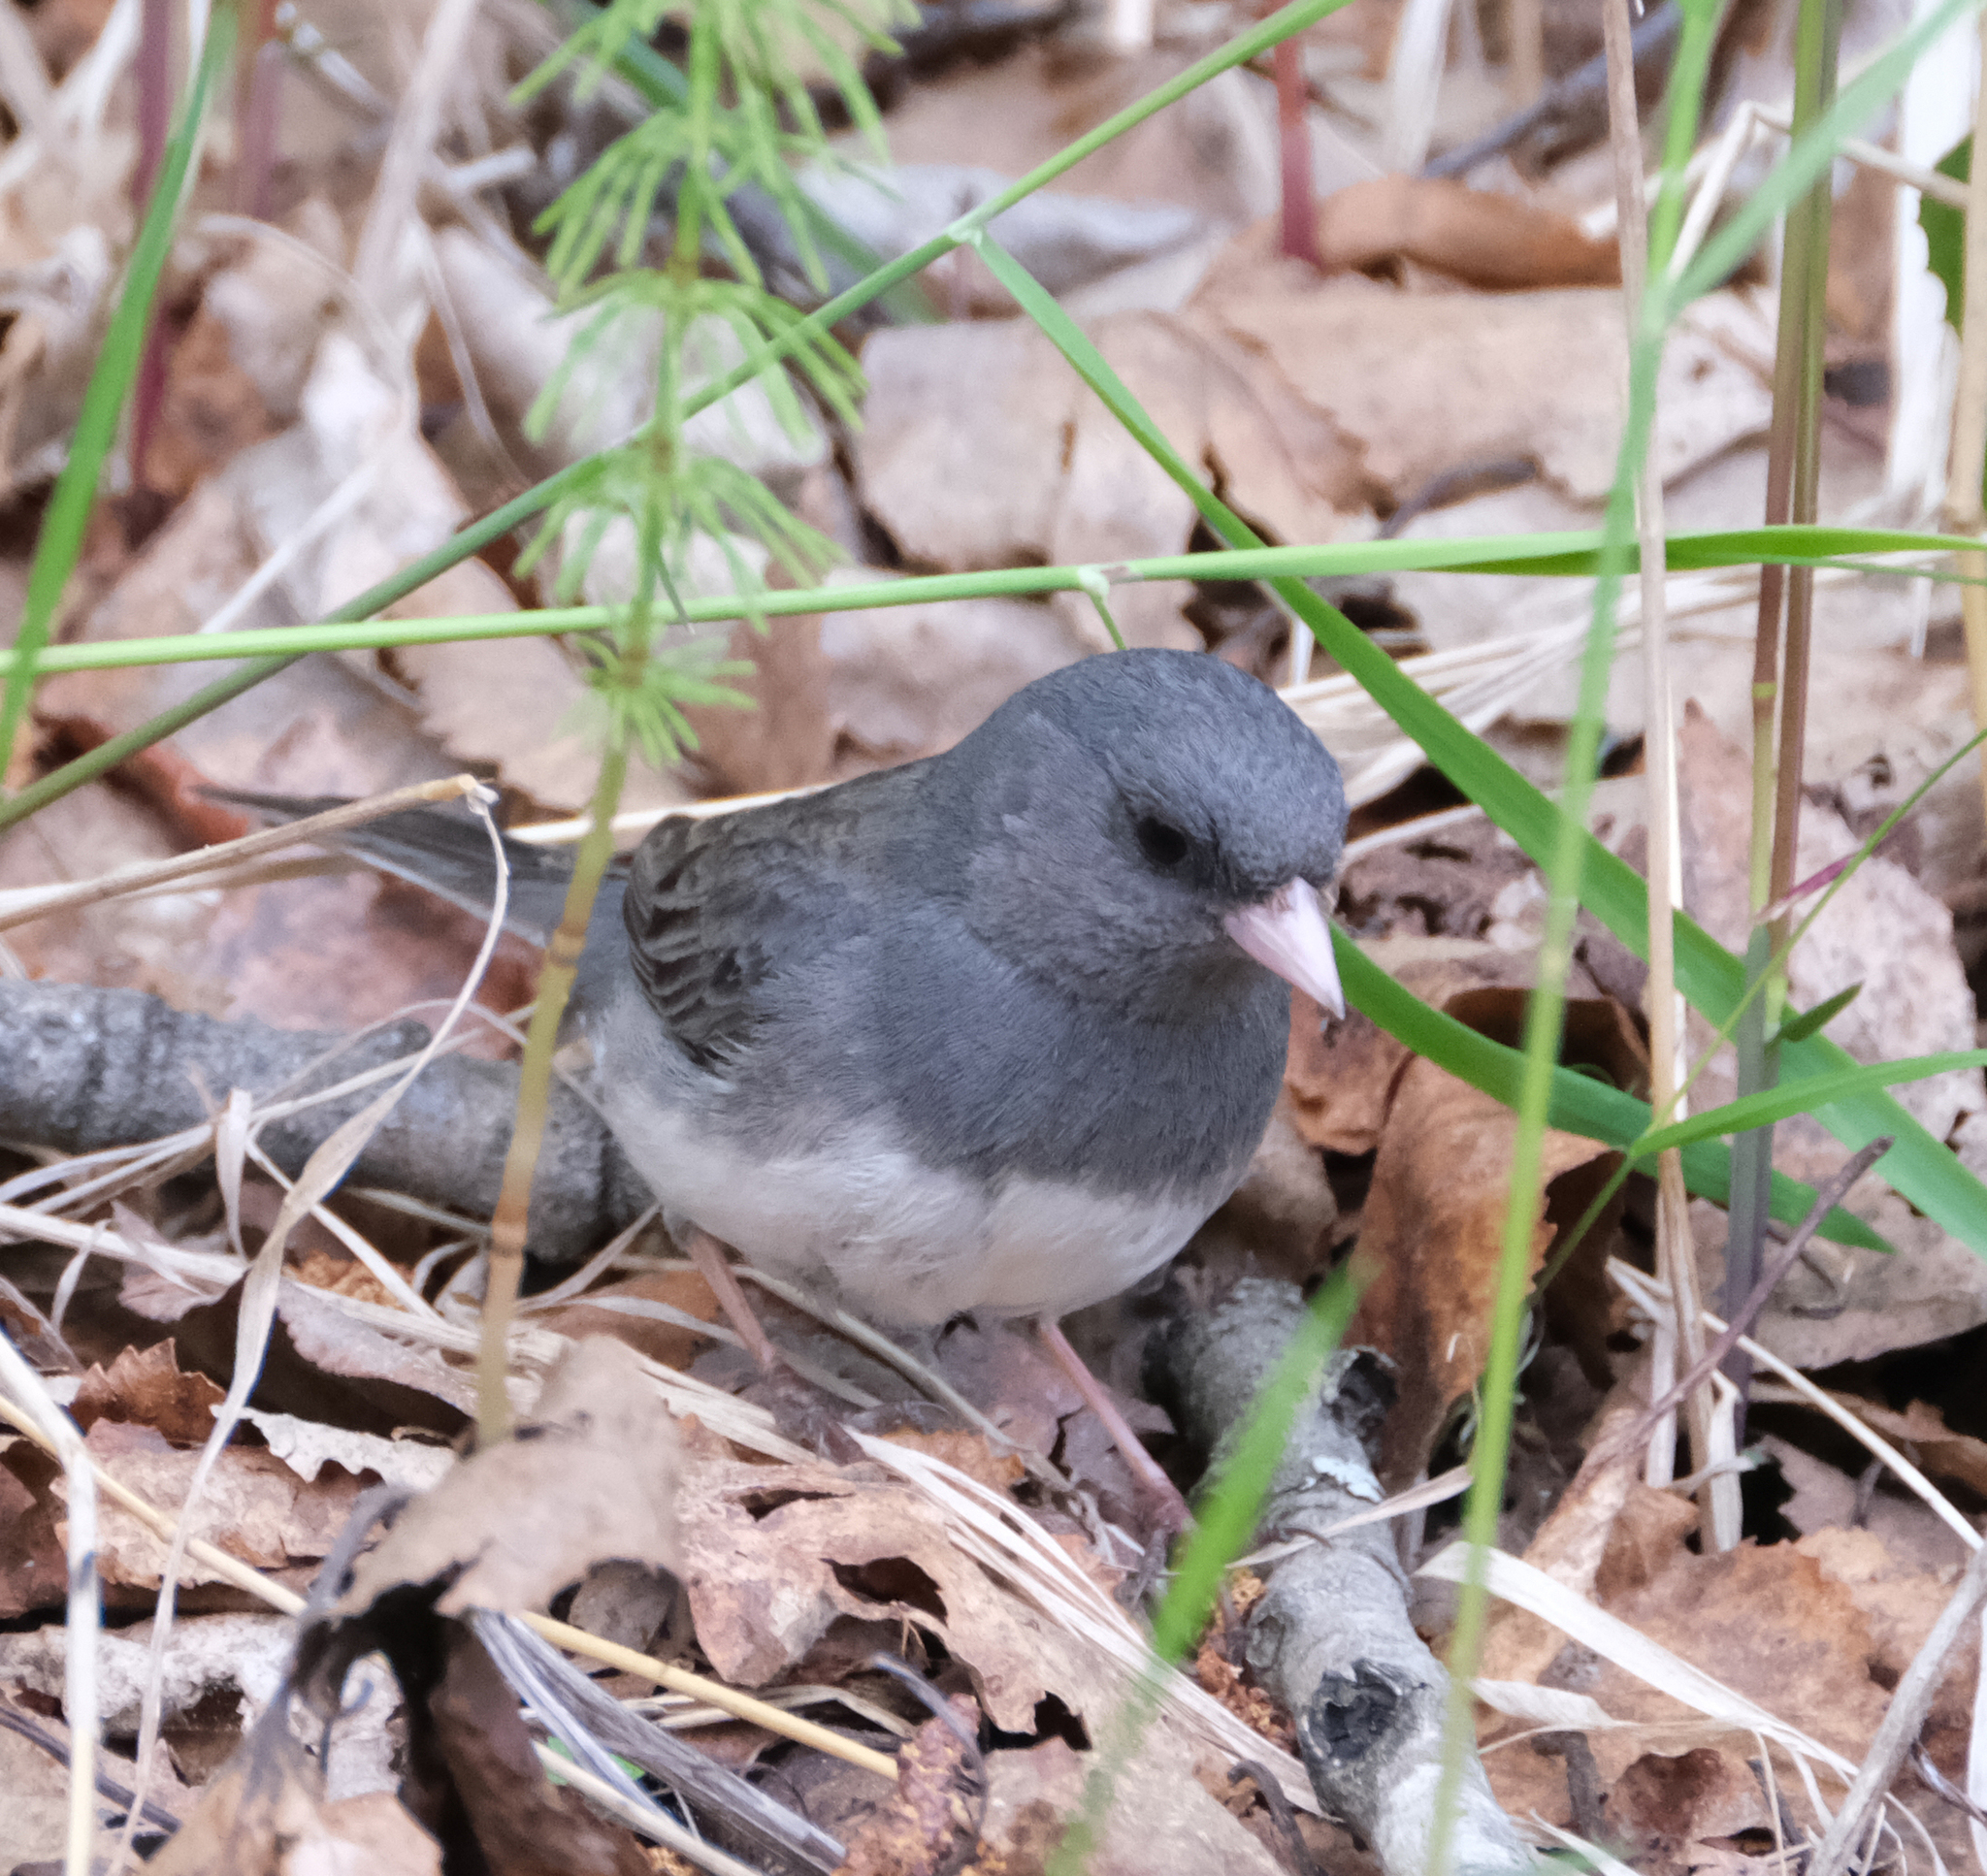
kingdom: Animalia
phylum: Chordata
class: Aves
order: Passeriformes
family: Passerellidae
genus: Junco
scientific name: Junco hyemalis
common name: Dark-eyed junco
